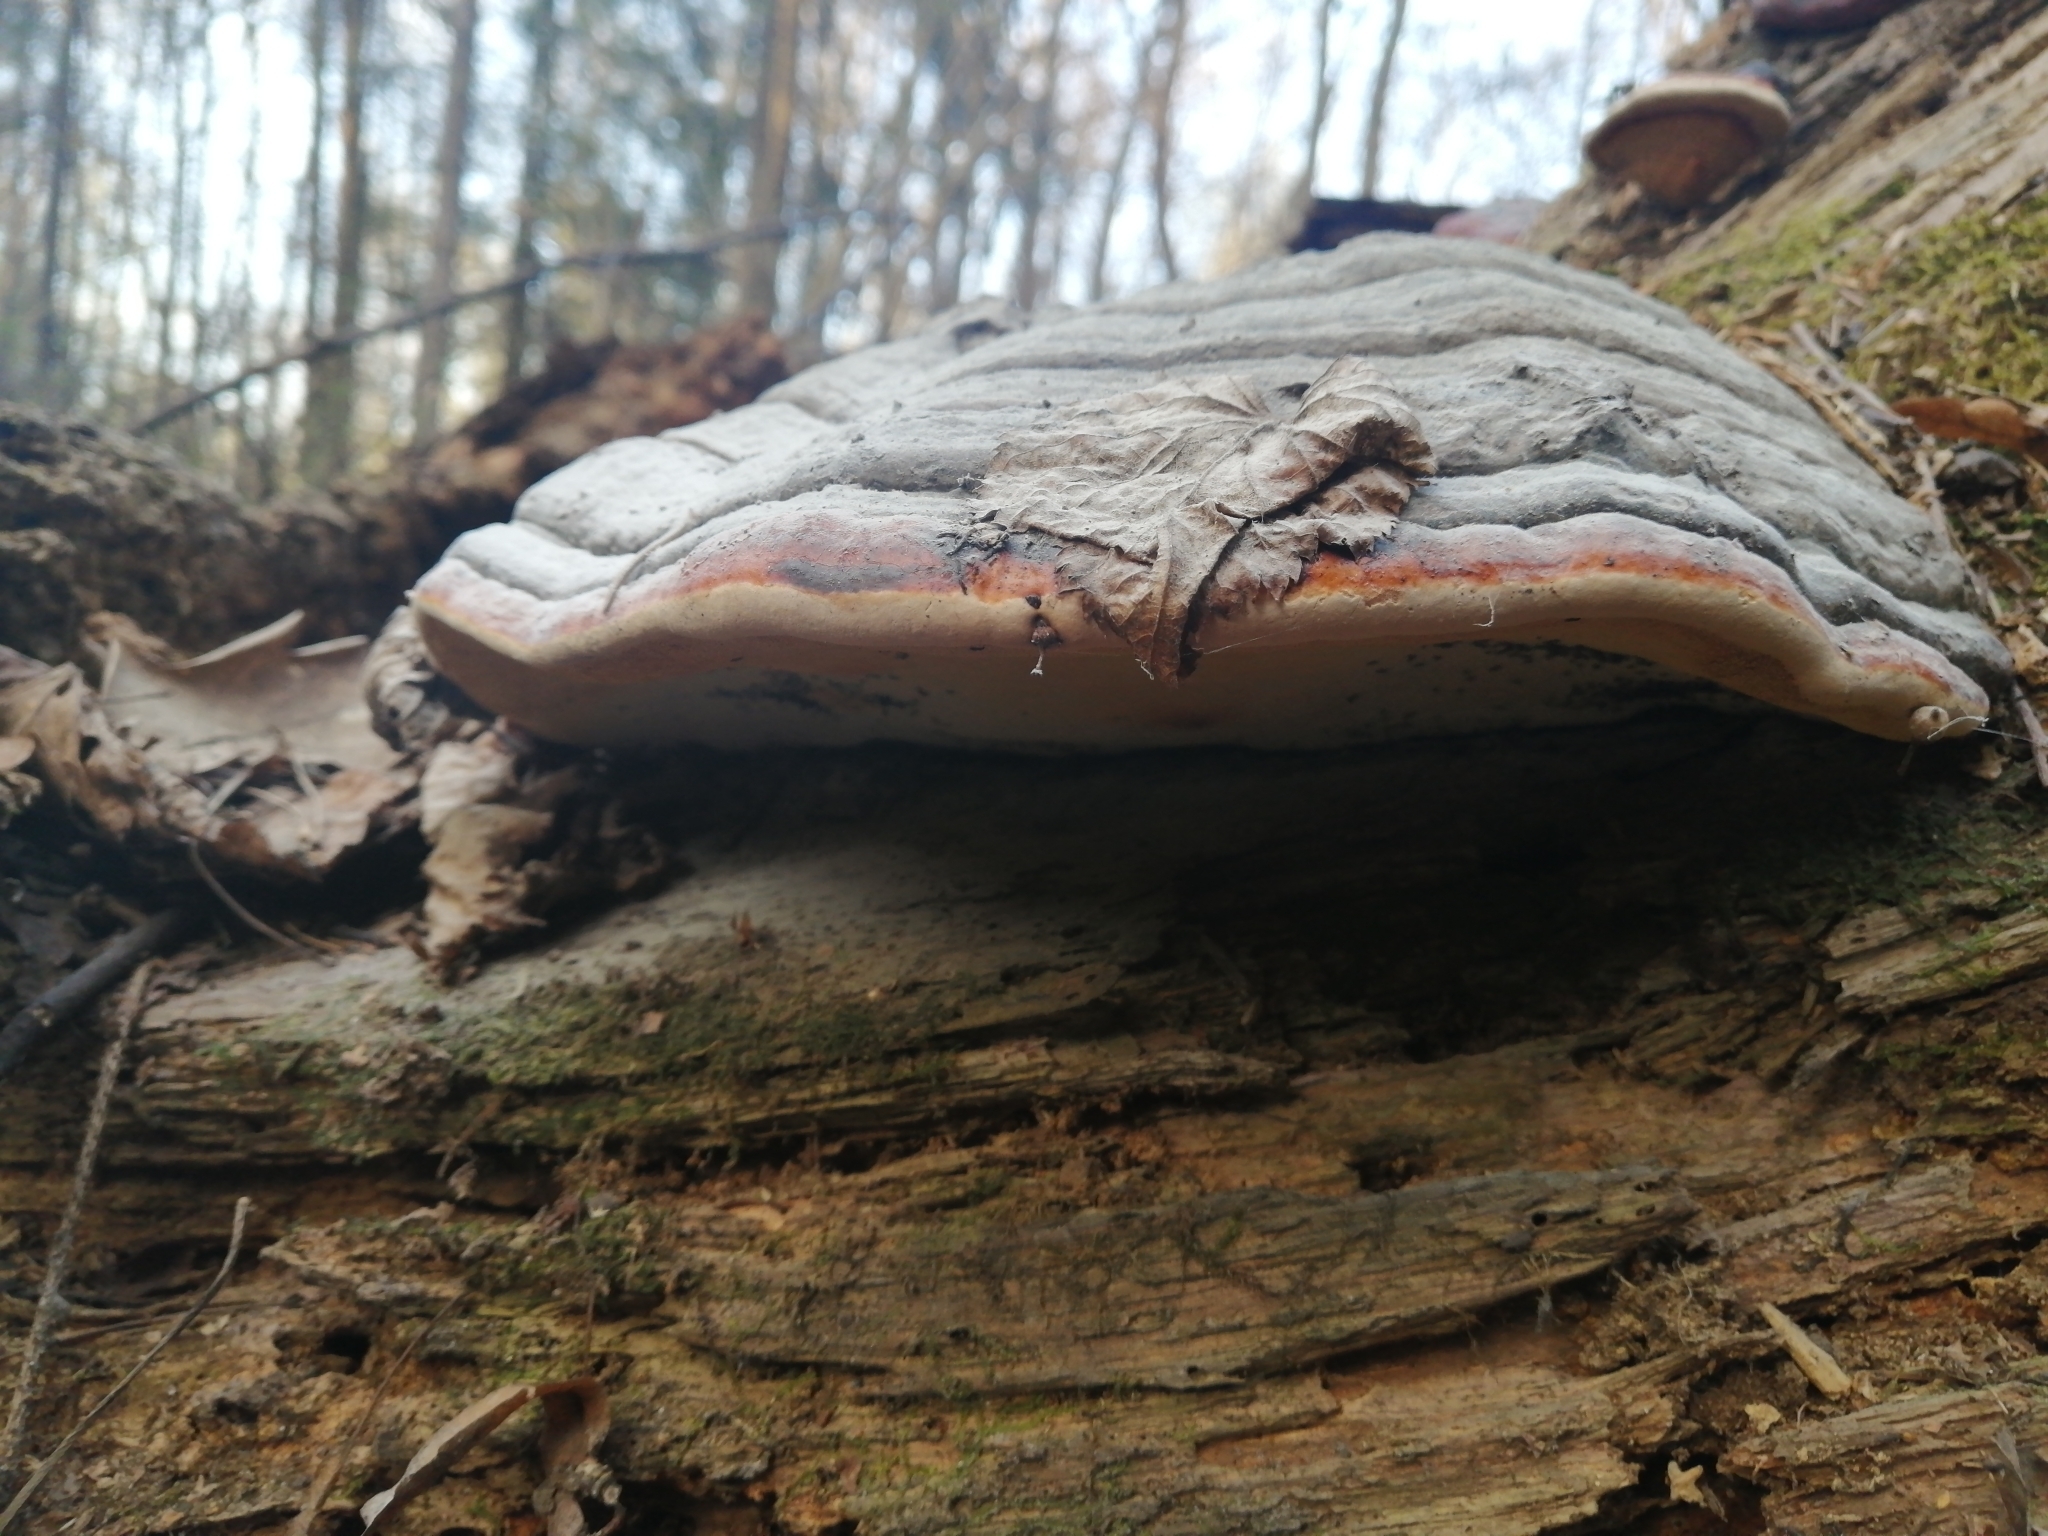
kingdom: Fungi
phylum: Basidiomycota
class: Agaricomycetes
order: Polyporales
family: Fomitopsidaceae
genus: Fomitopsis
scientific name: Fomitopsis pinicola
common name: Red-belted bracket
